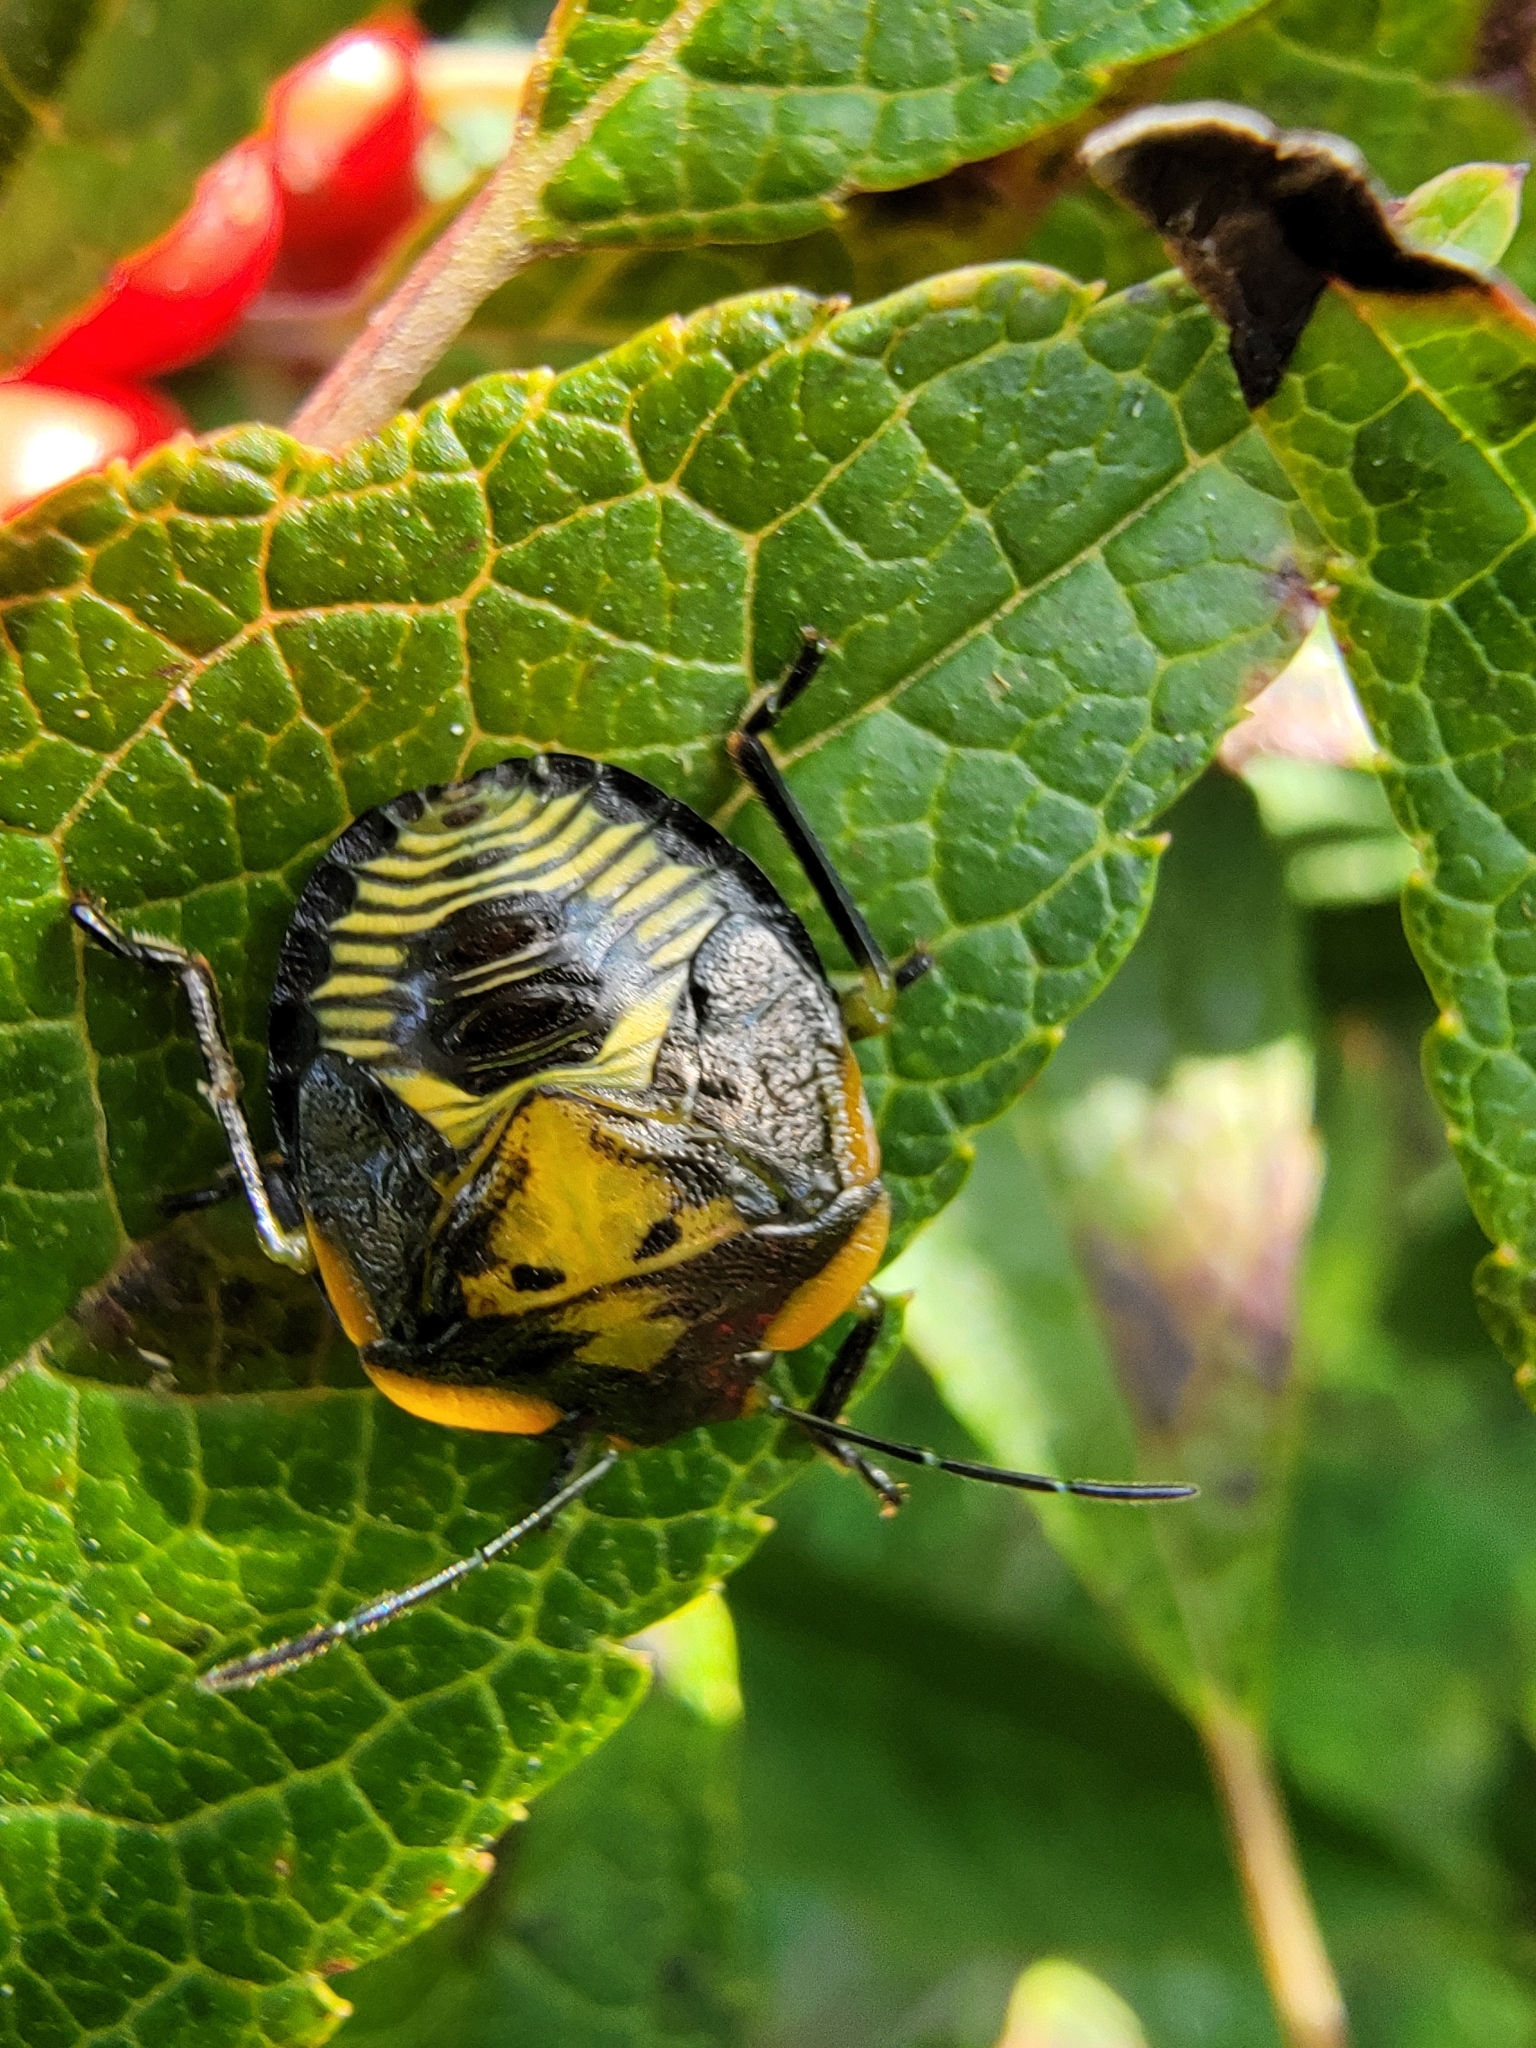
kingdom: Animalia
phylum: Arthropoda
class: Insecta
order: Hemiptera
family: Pentatomidae
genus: Chinavia
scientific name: Chinavia hilaris
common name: Green stink bug
